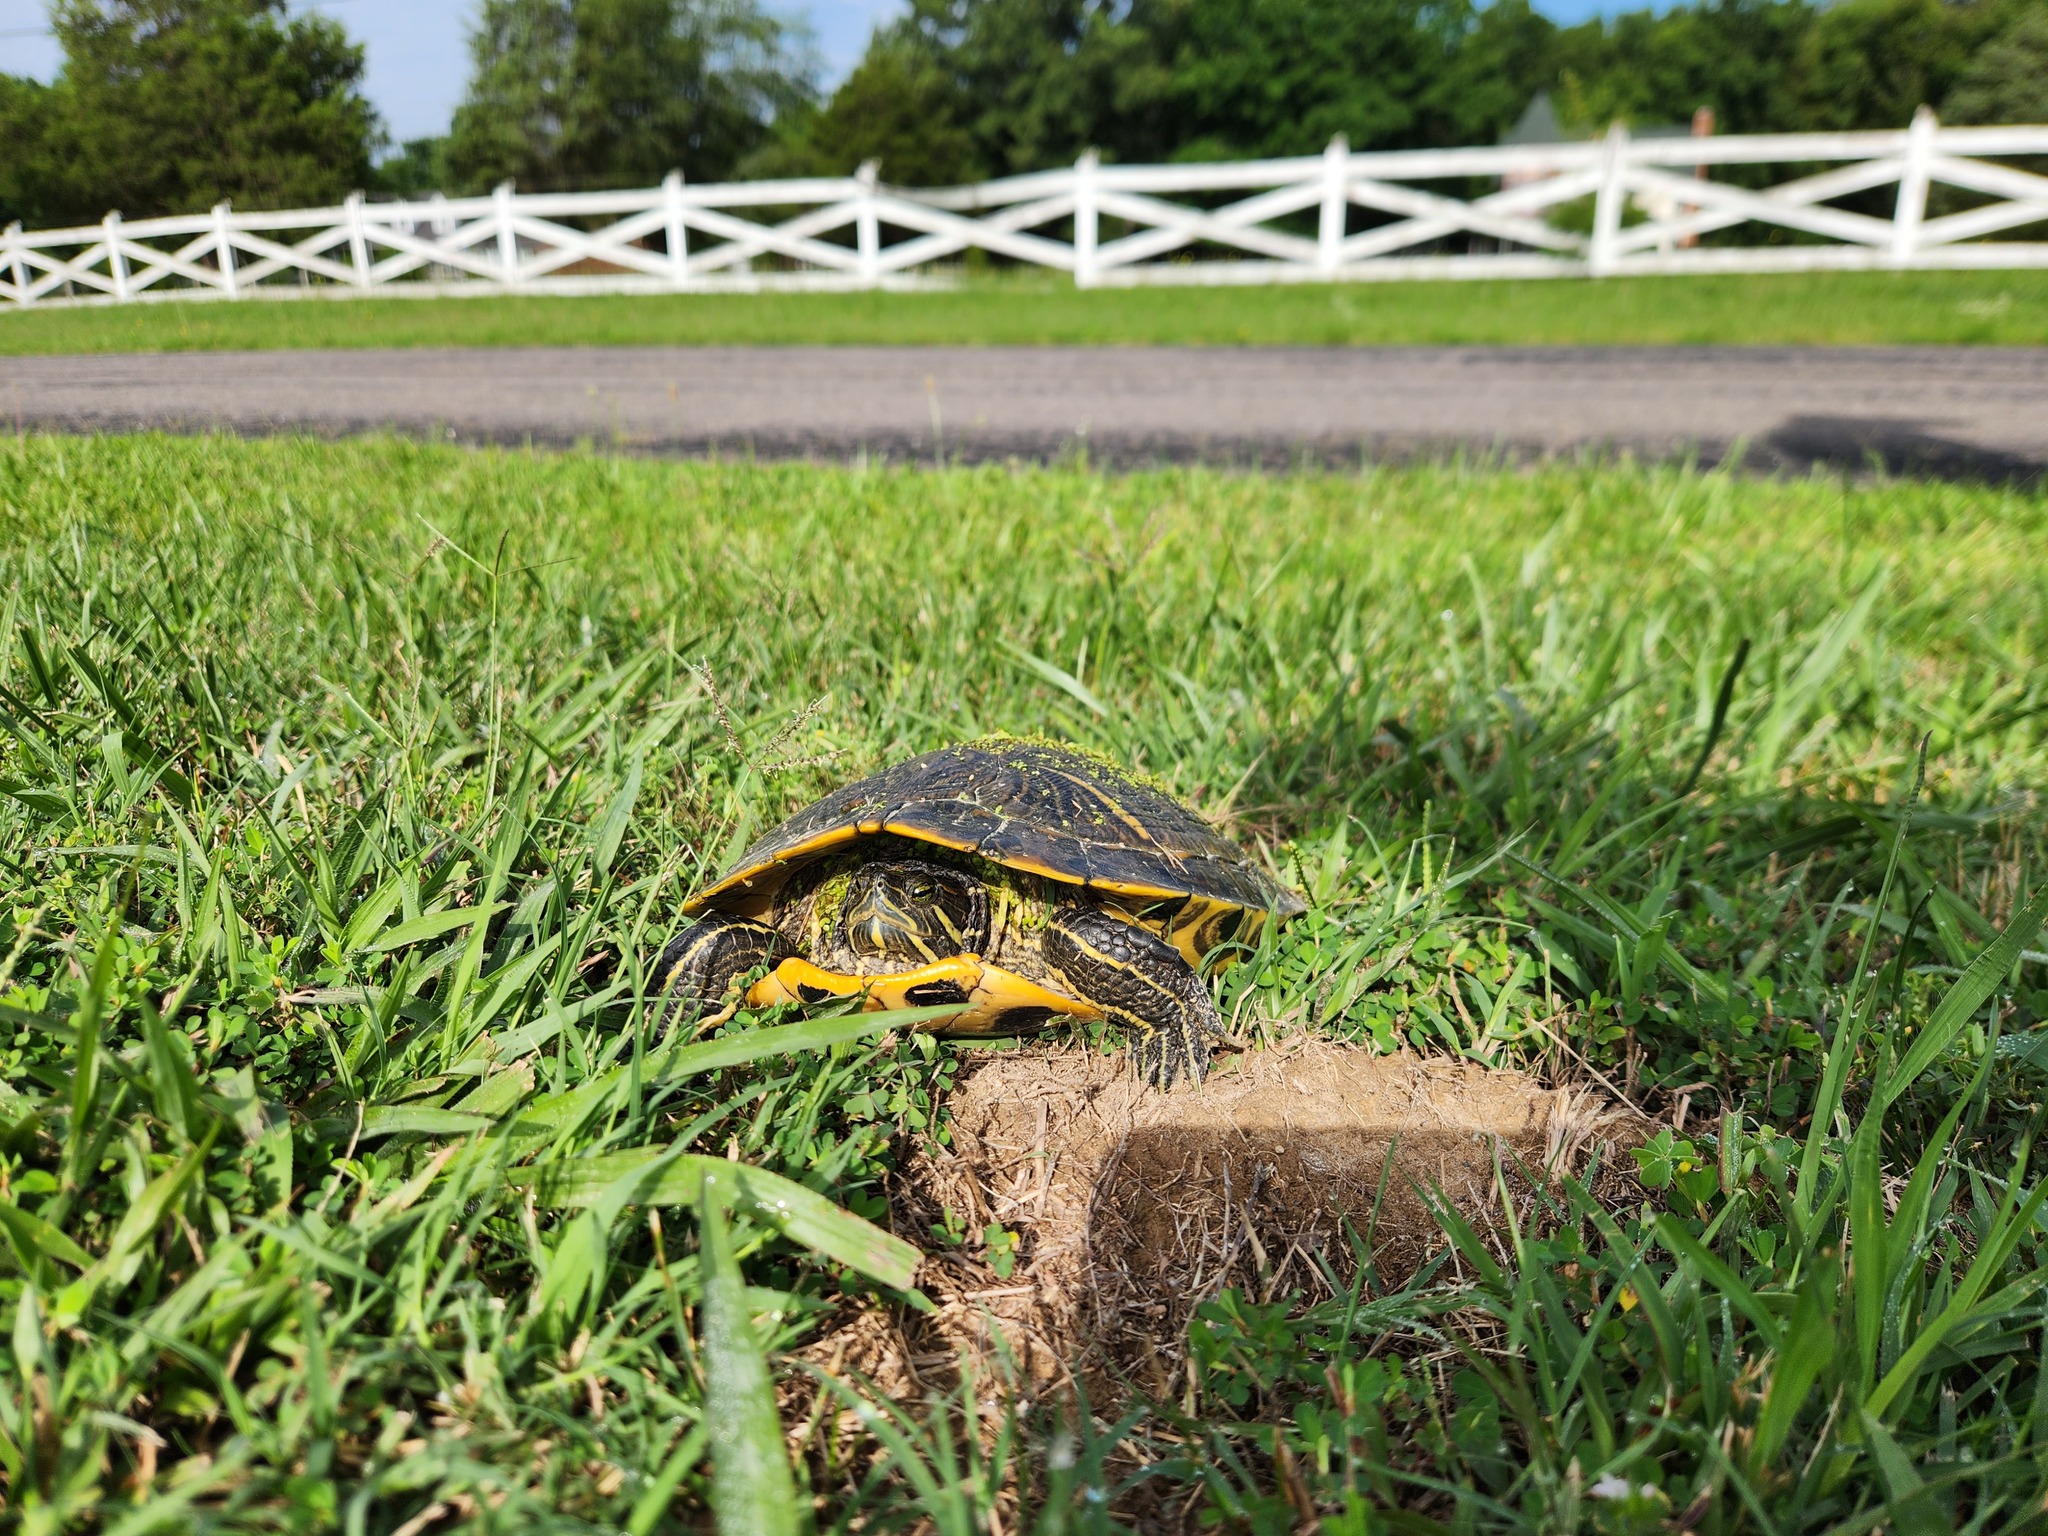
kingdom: Animalia
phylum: Chordata
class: Testudines
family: Emydidae
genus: Trachemys
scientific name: Trachemys scripta
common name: Slider
